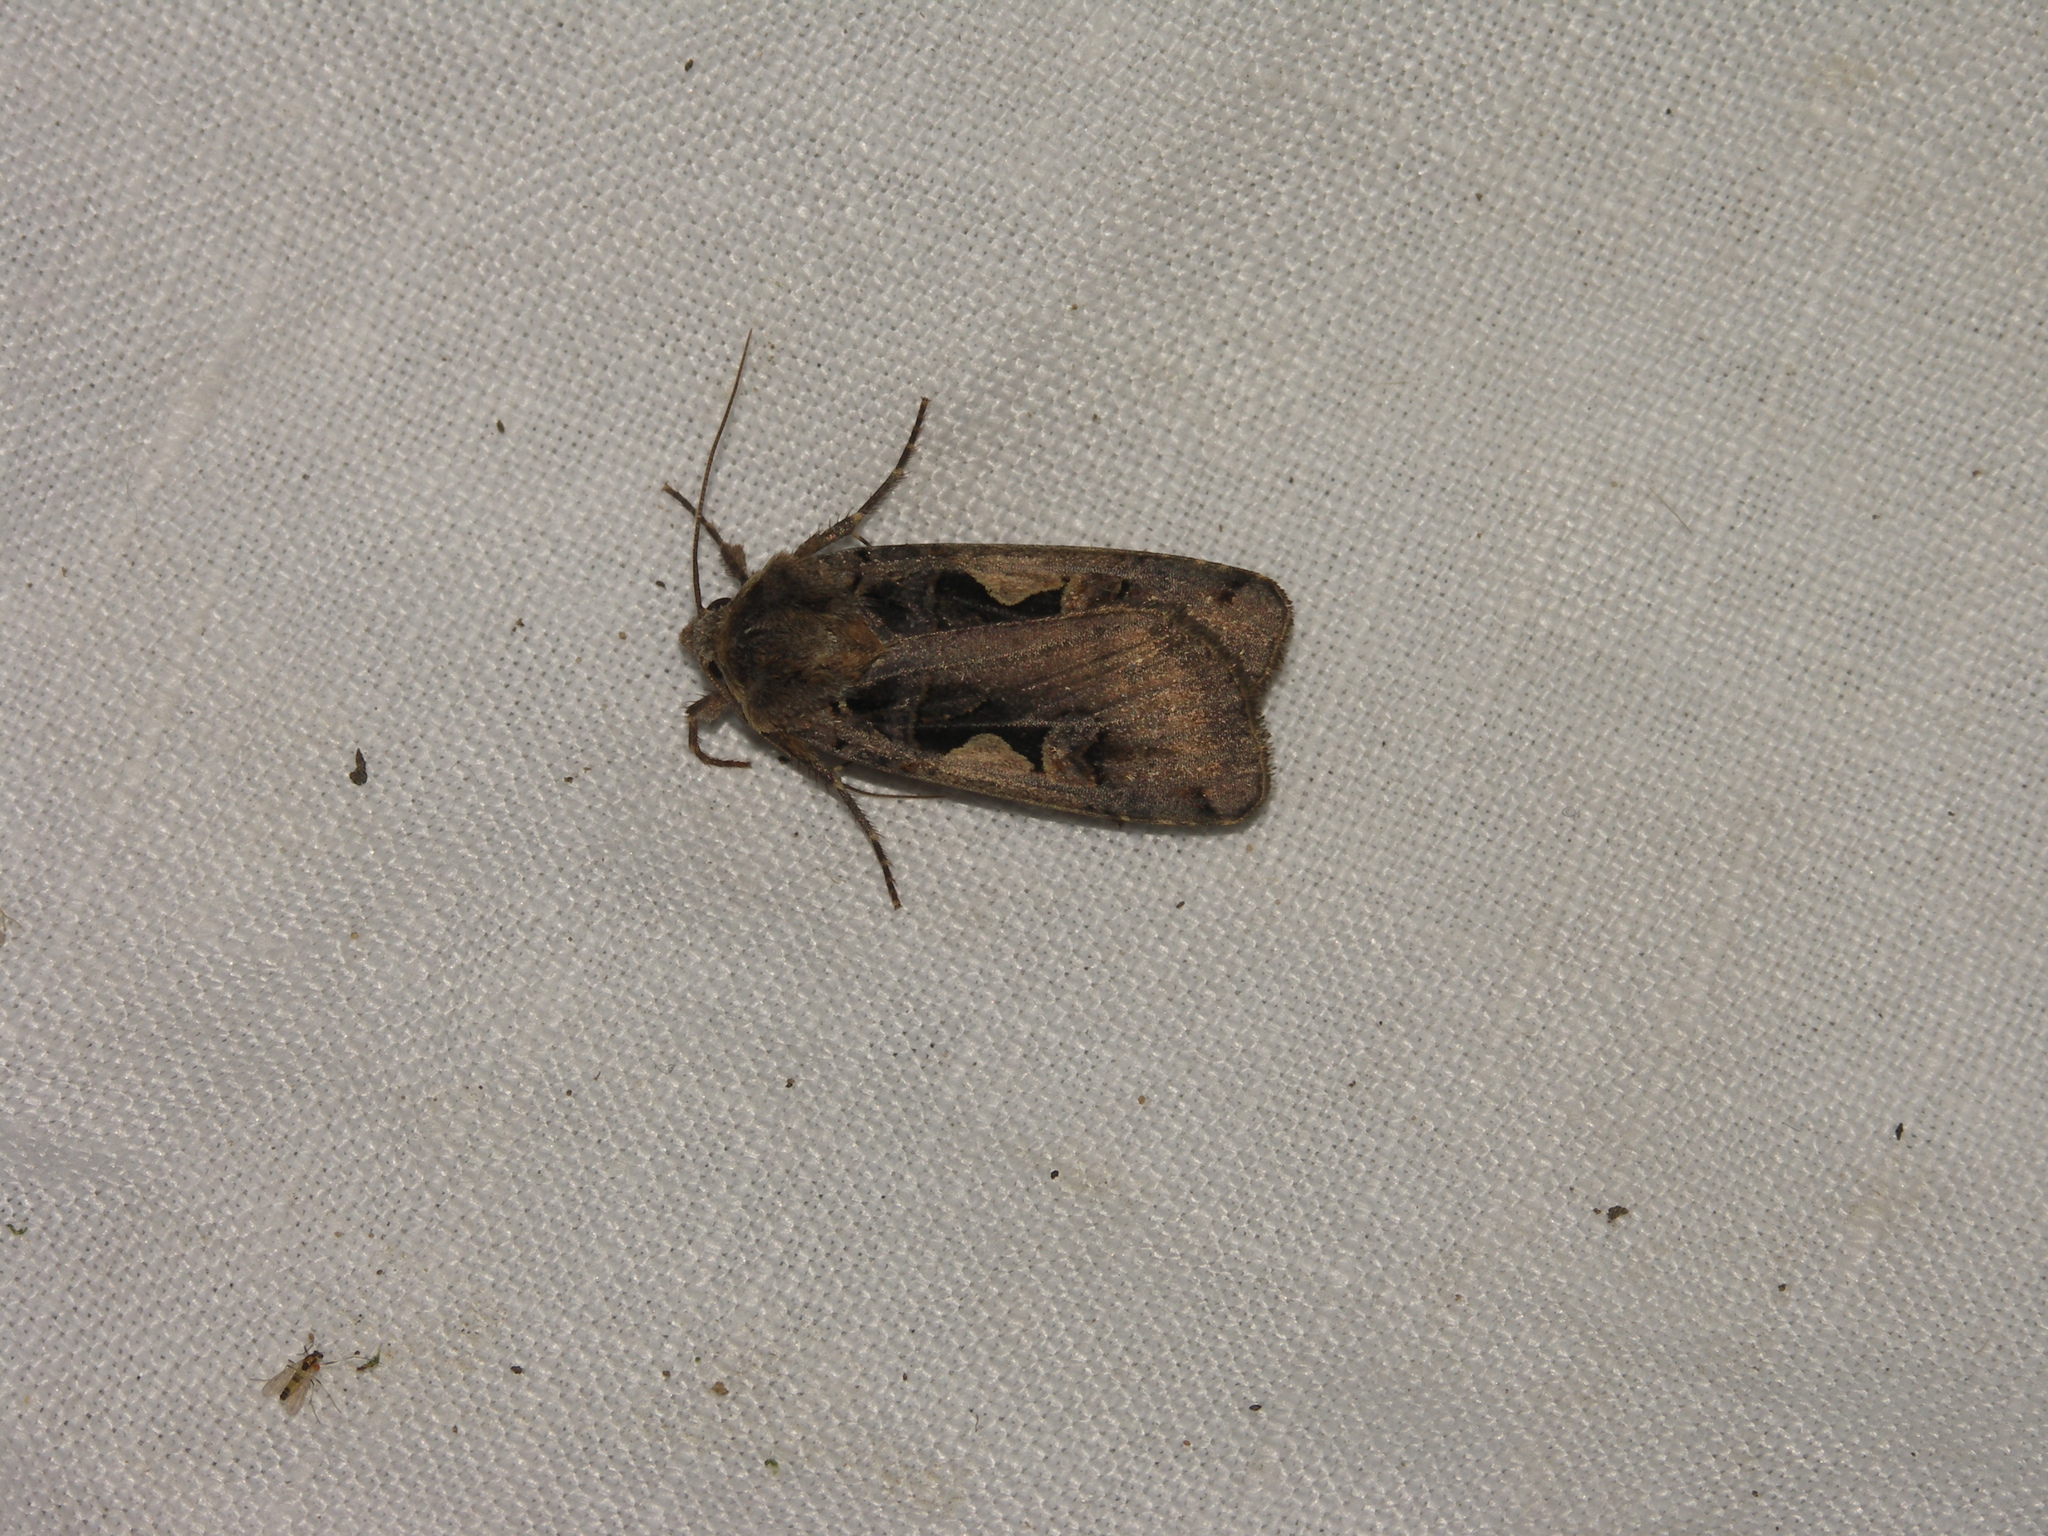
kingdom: Animalia
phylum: Arthropoda
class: Insecta
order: Lepidoptera
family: Noctuidae
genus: Xestia
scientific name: Xestia c-nigrum
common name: Setaceous hebrew character
